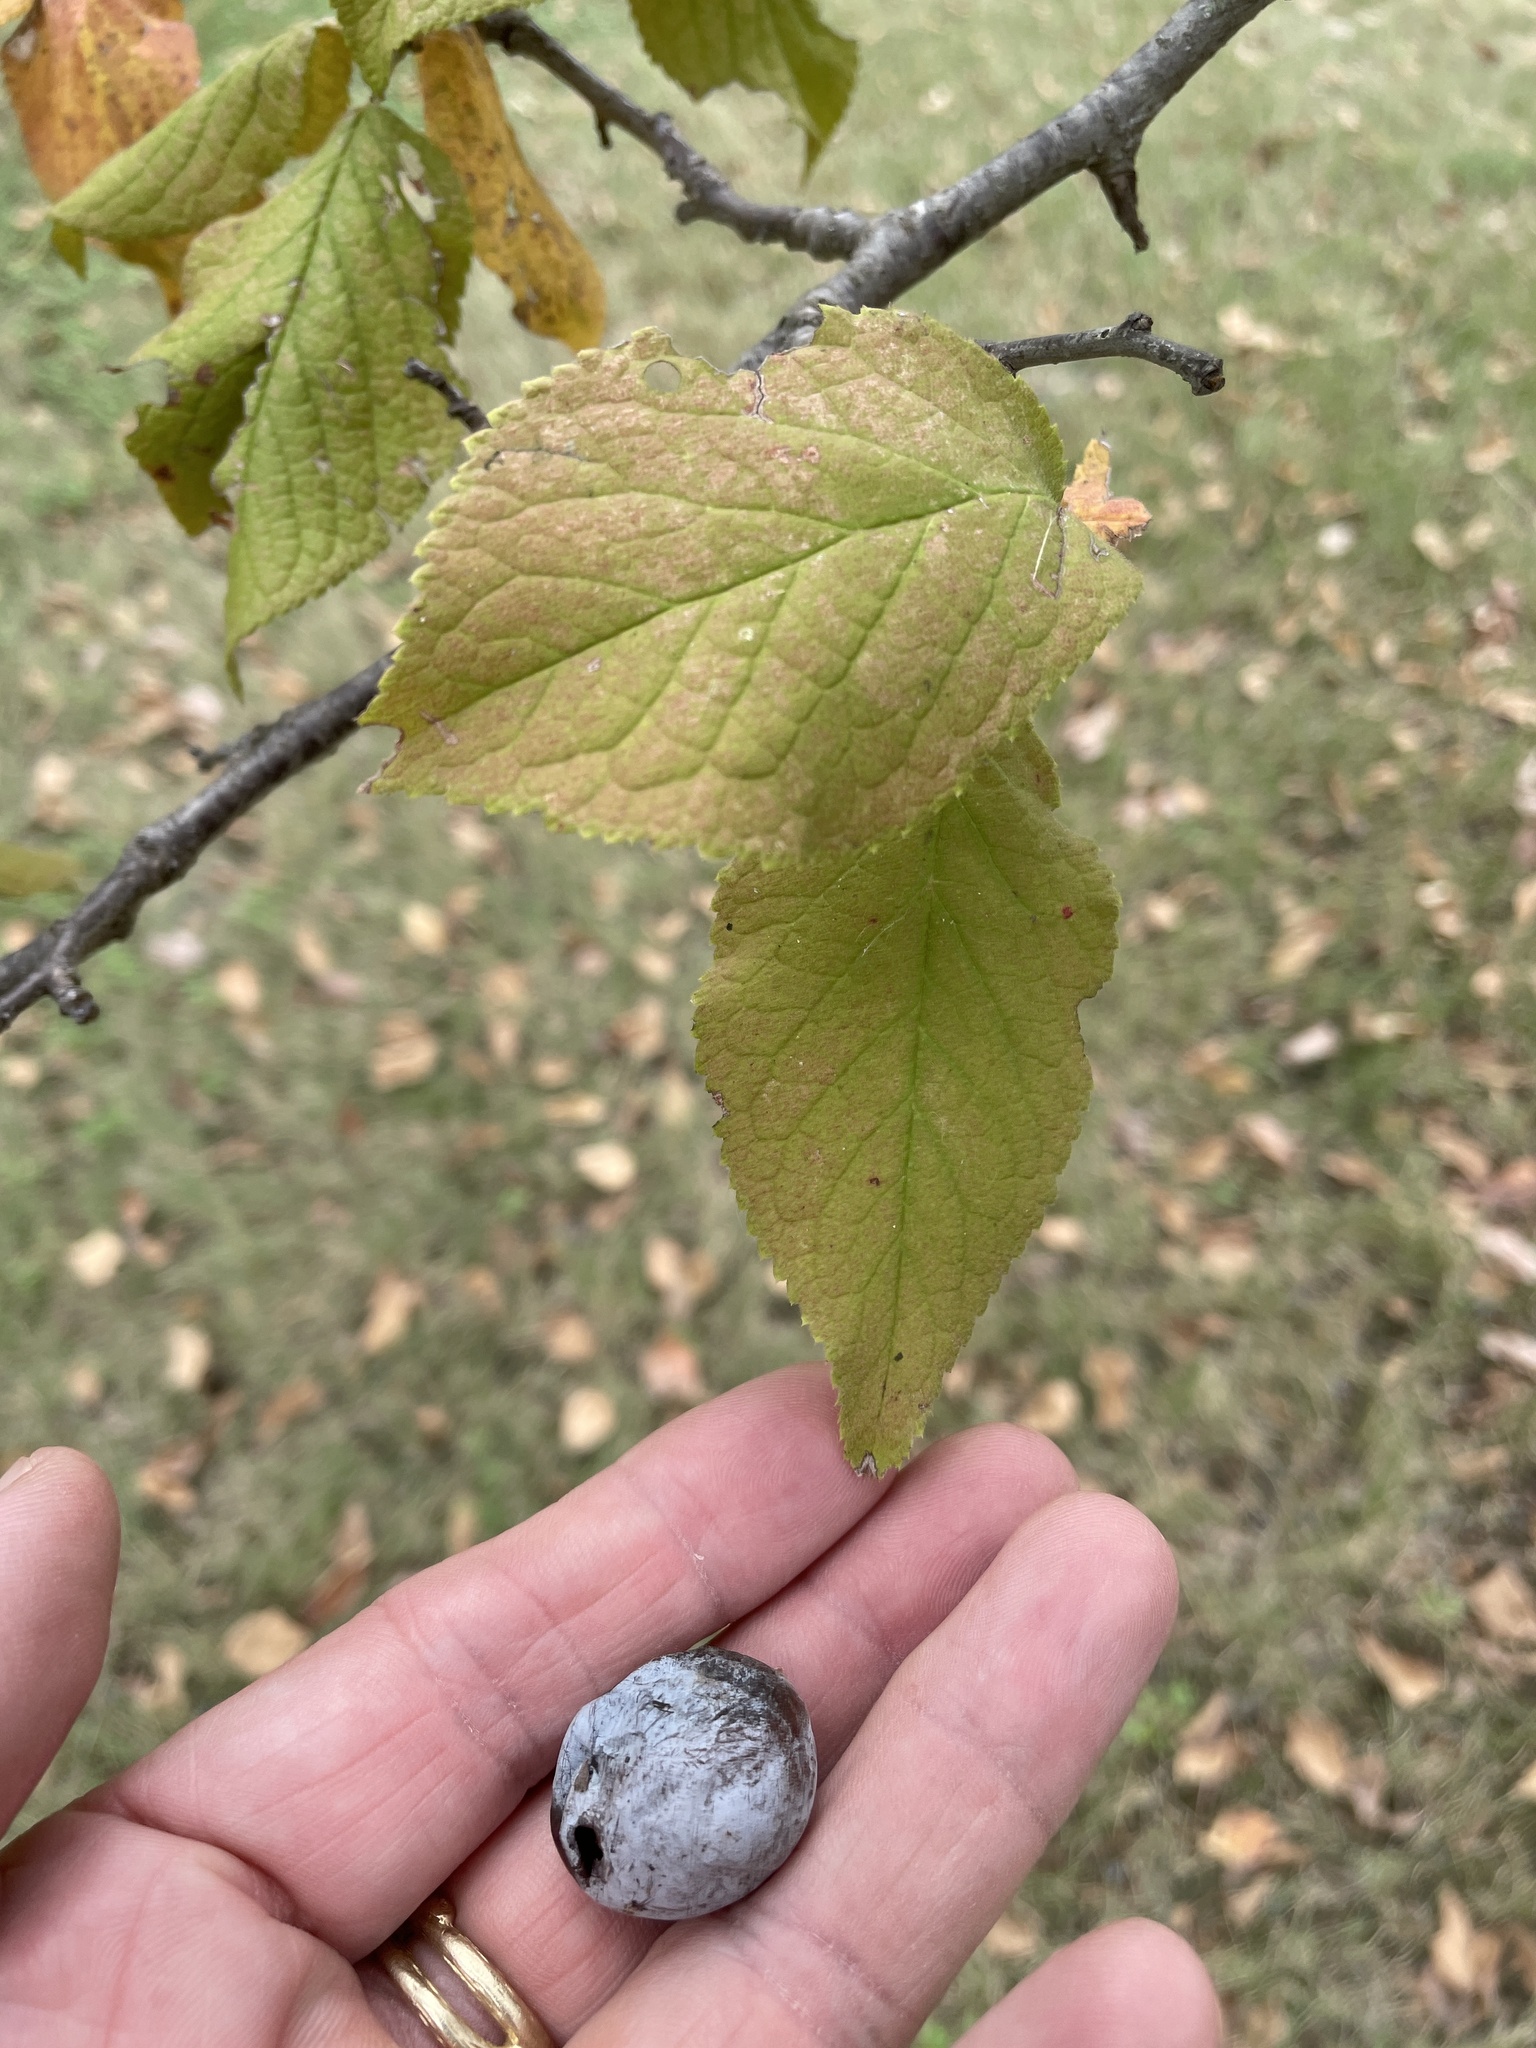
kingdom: Plantae
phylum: Tracheophyta
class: Magnoliopsida
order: Rosales
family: Rosaceae
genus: Prunus
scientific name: Prunus mexicana
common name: Mexican plum
